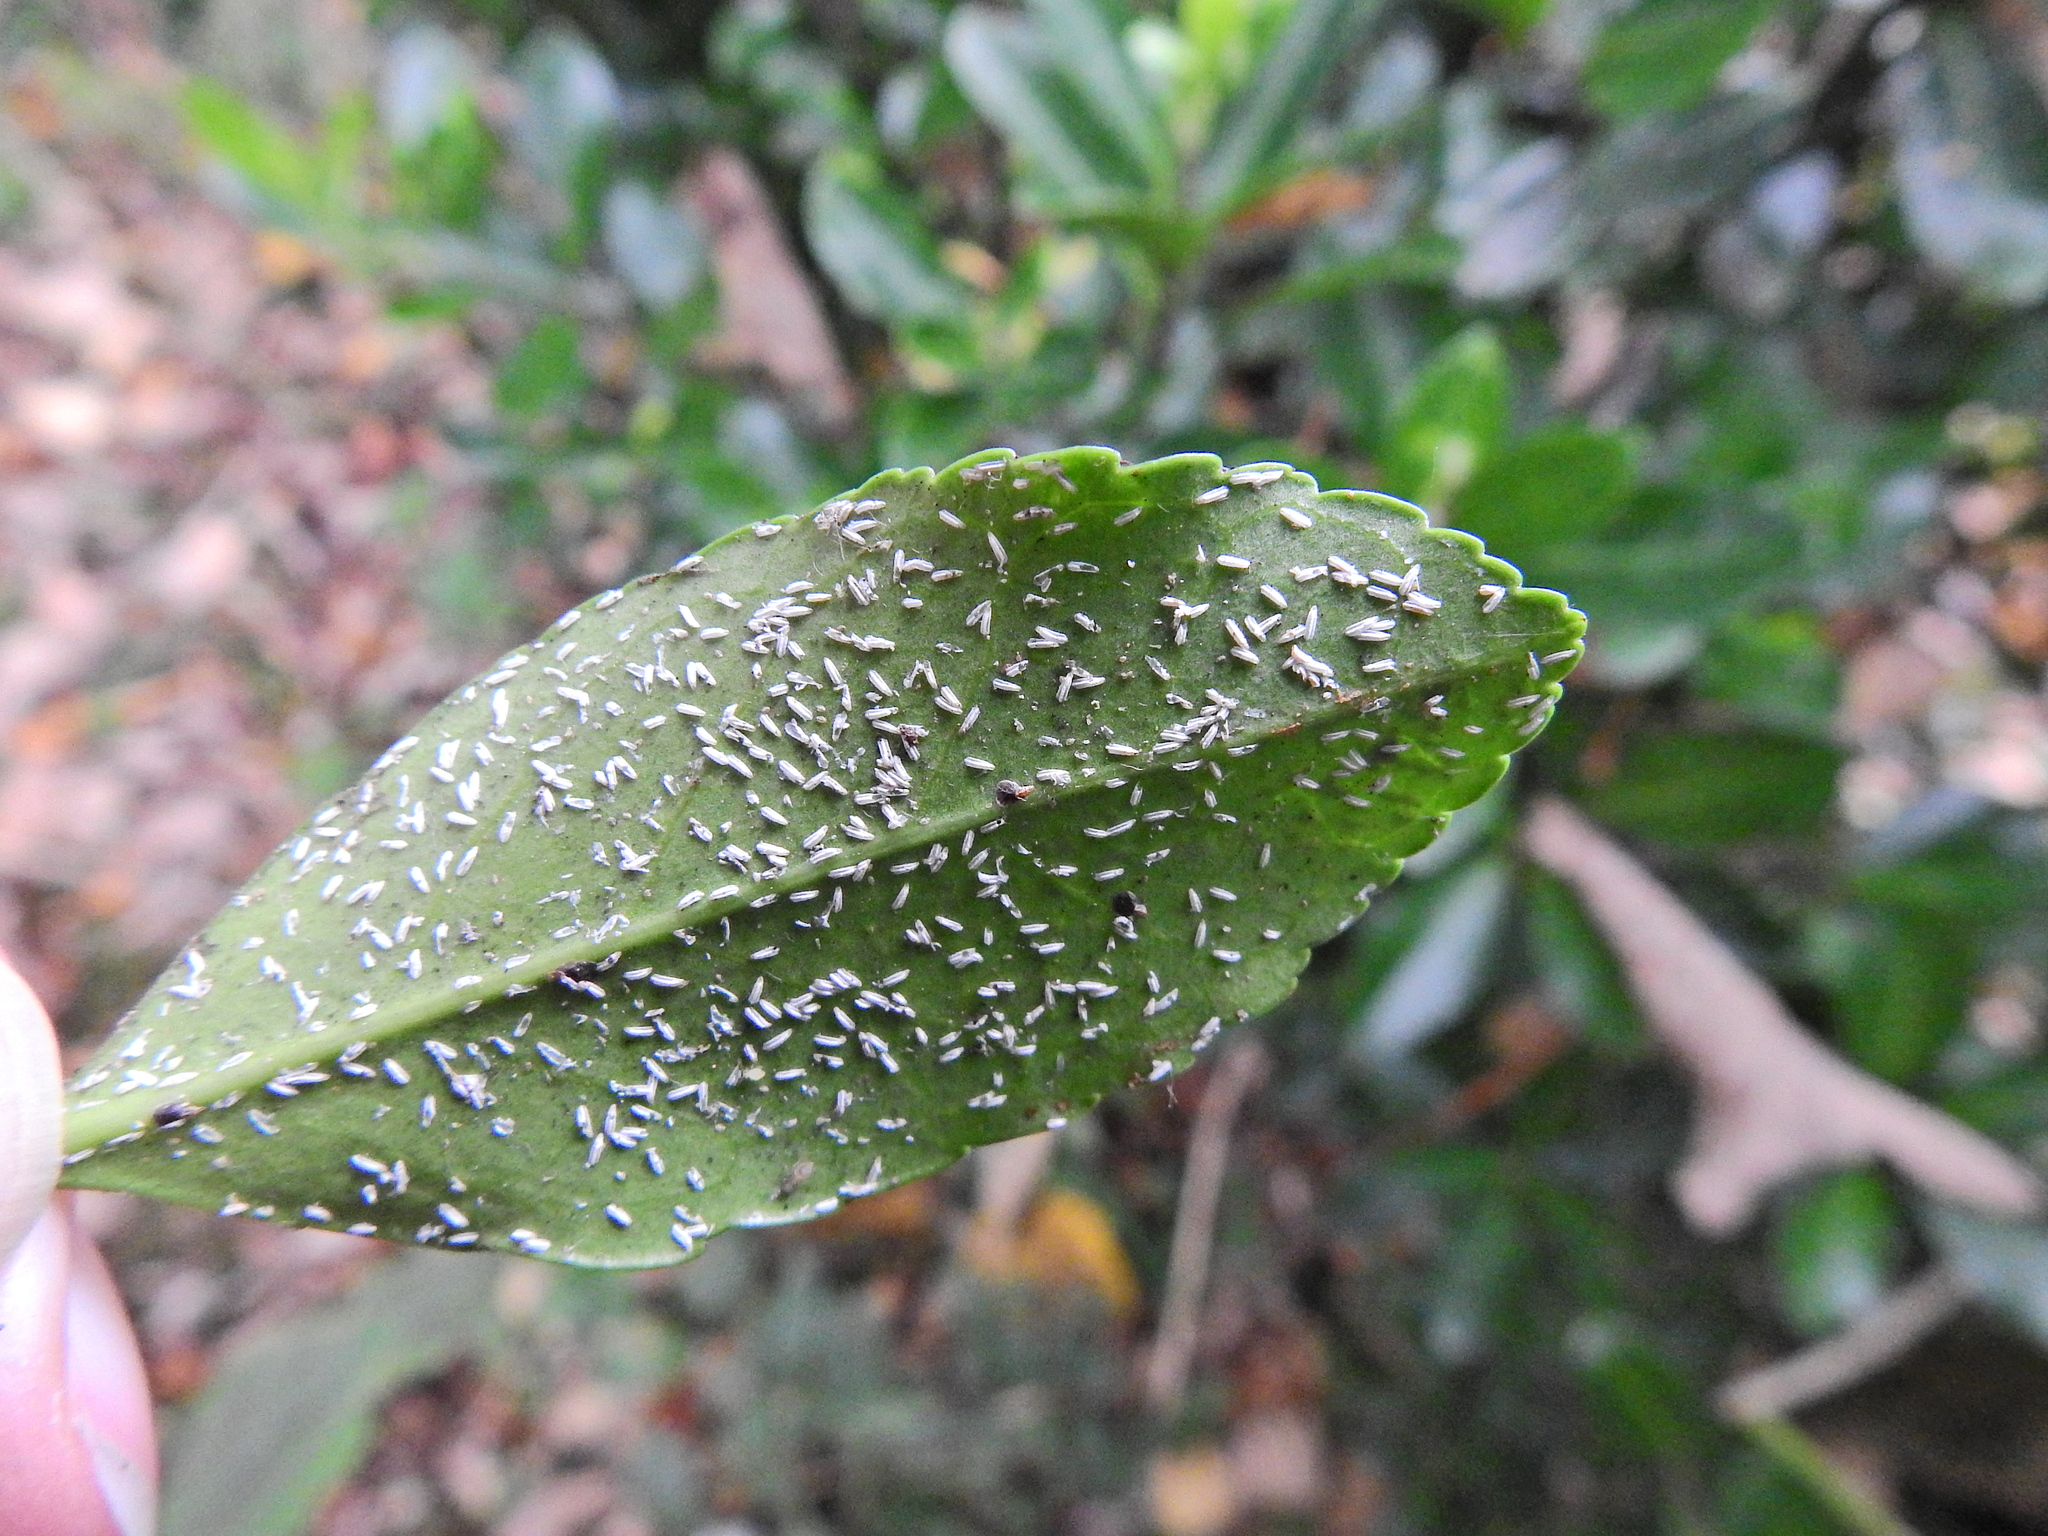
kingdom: Animalia
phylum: Arthropoda
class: Insecta
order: Hemiptera
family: Diaspididae
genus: Unaspis
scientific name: Unaspis euonymi
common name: Euonymus scale
